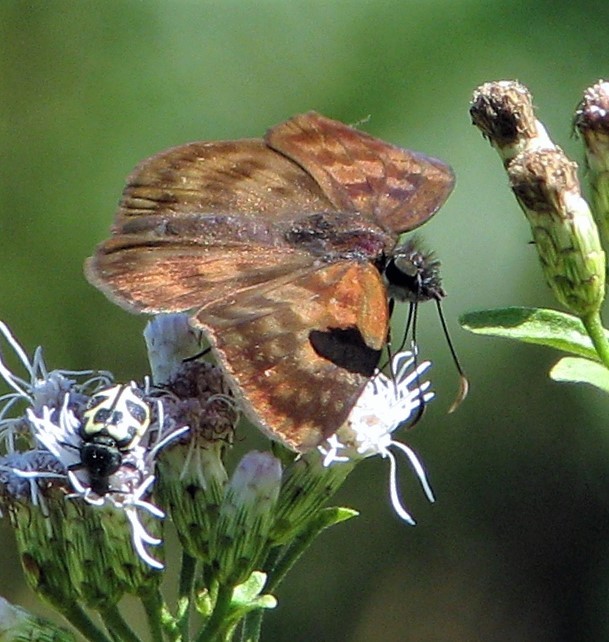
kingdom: Animalia
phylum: Arthropoda
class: Insecta
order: Lepidoptera
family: Hesperiidae
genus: Anastrus
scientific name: Anastrus Echelatus sempiternus
